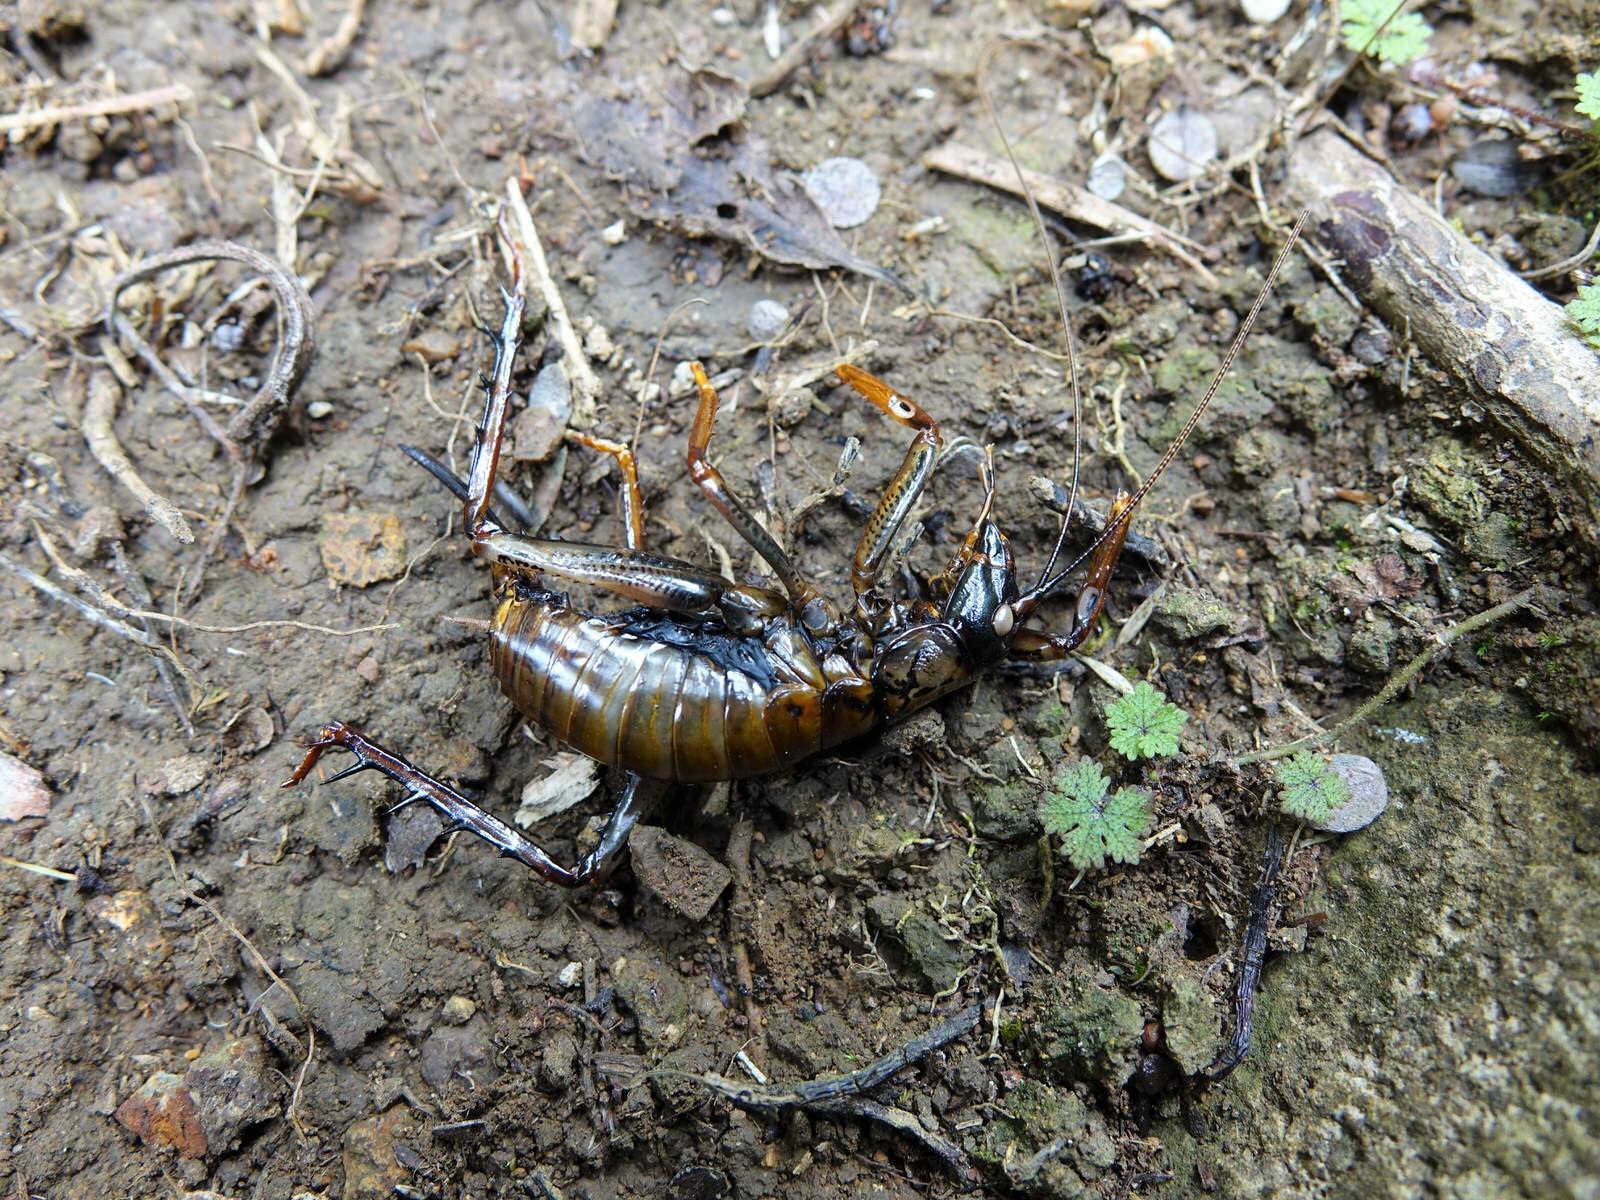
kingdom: Animalia
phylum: Arthropoda
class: Insecta
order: Orthoptera
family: Anostostomatidae
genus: Hemideina
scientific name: Hemideina thoracica
